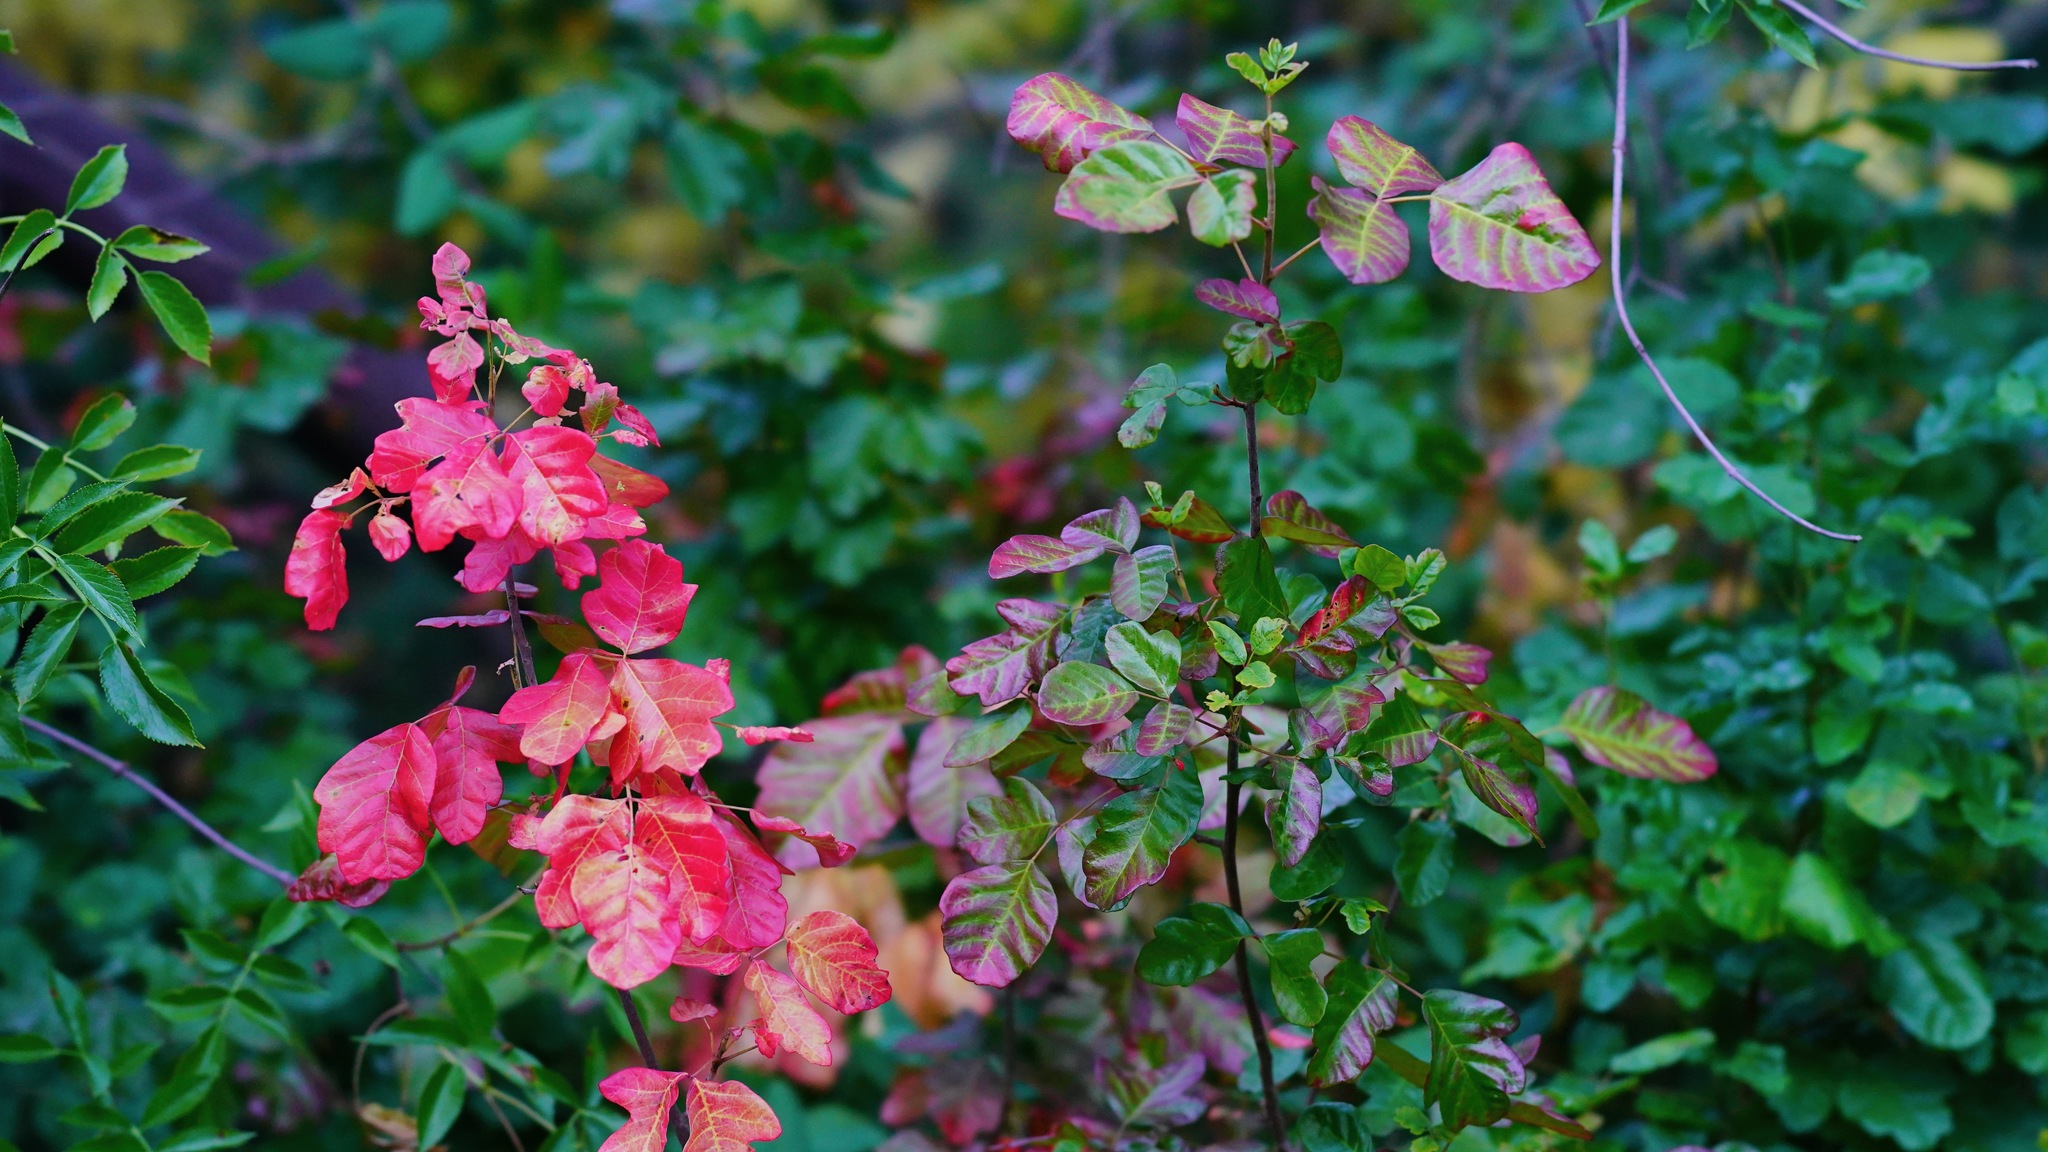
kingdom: Plantae
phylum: Tracheophyta
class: Magnoliopsida
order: Sapindales
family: Anacardiaceae
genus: Toxicodendron
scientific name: Toxicodendron diversilobum
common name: Pacific poison-oak
